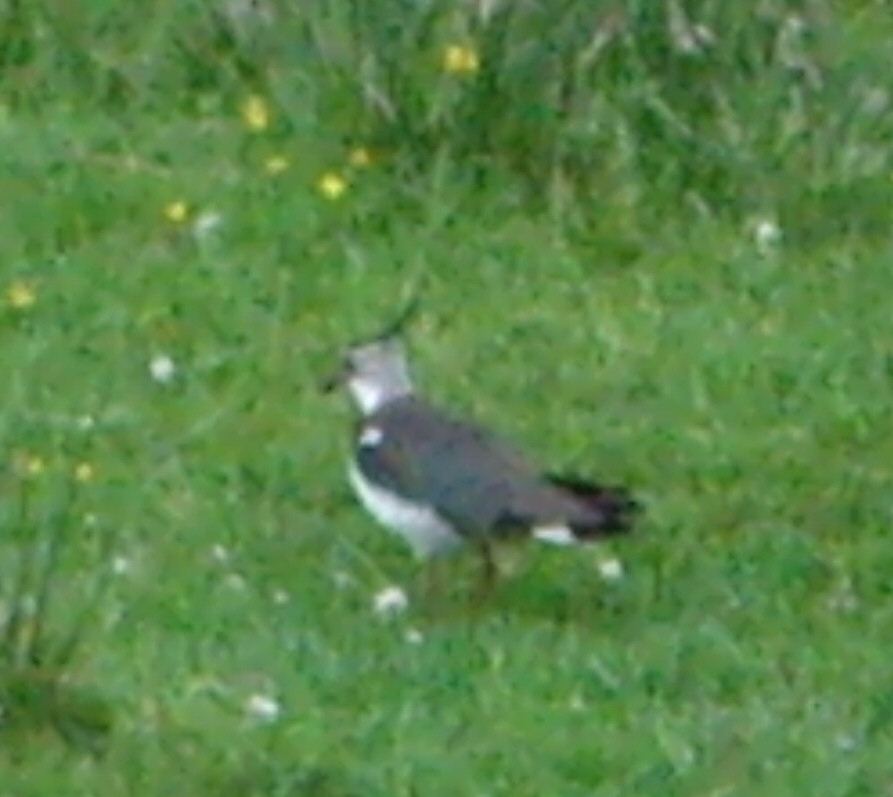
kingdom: Animalia
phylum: Chordata
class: Aves
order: Charadriiformes
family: Charadriidae
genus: Vanellus
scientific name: Vanellus vanellus
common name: Northern lapwing
